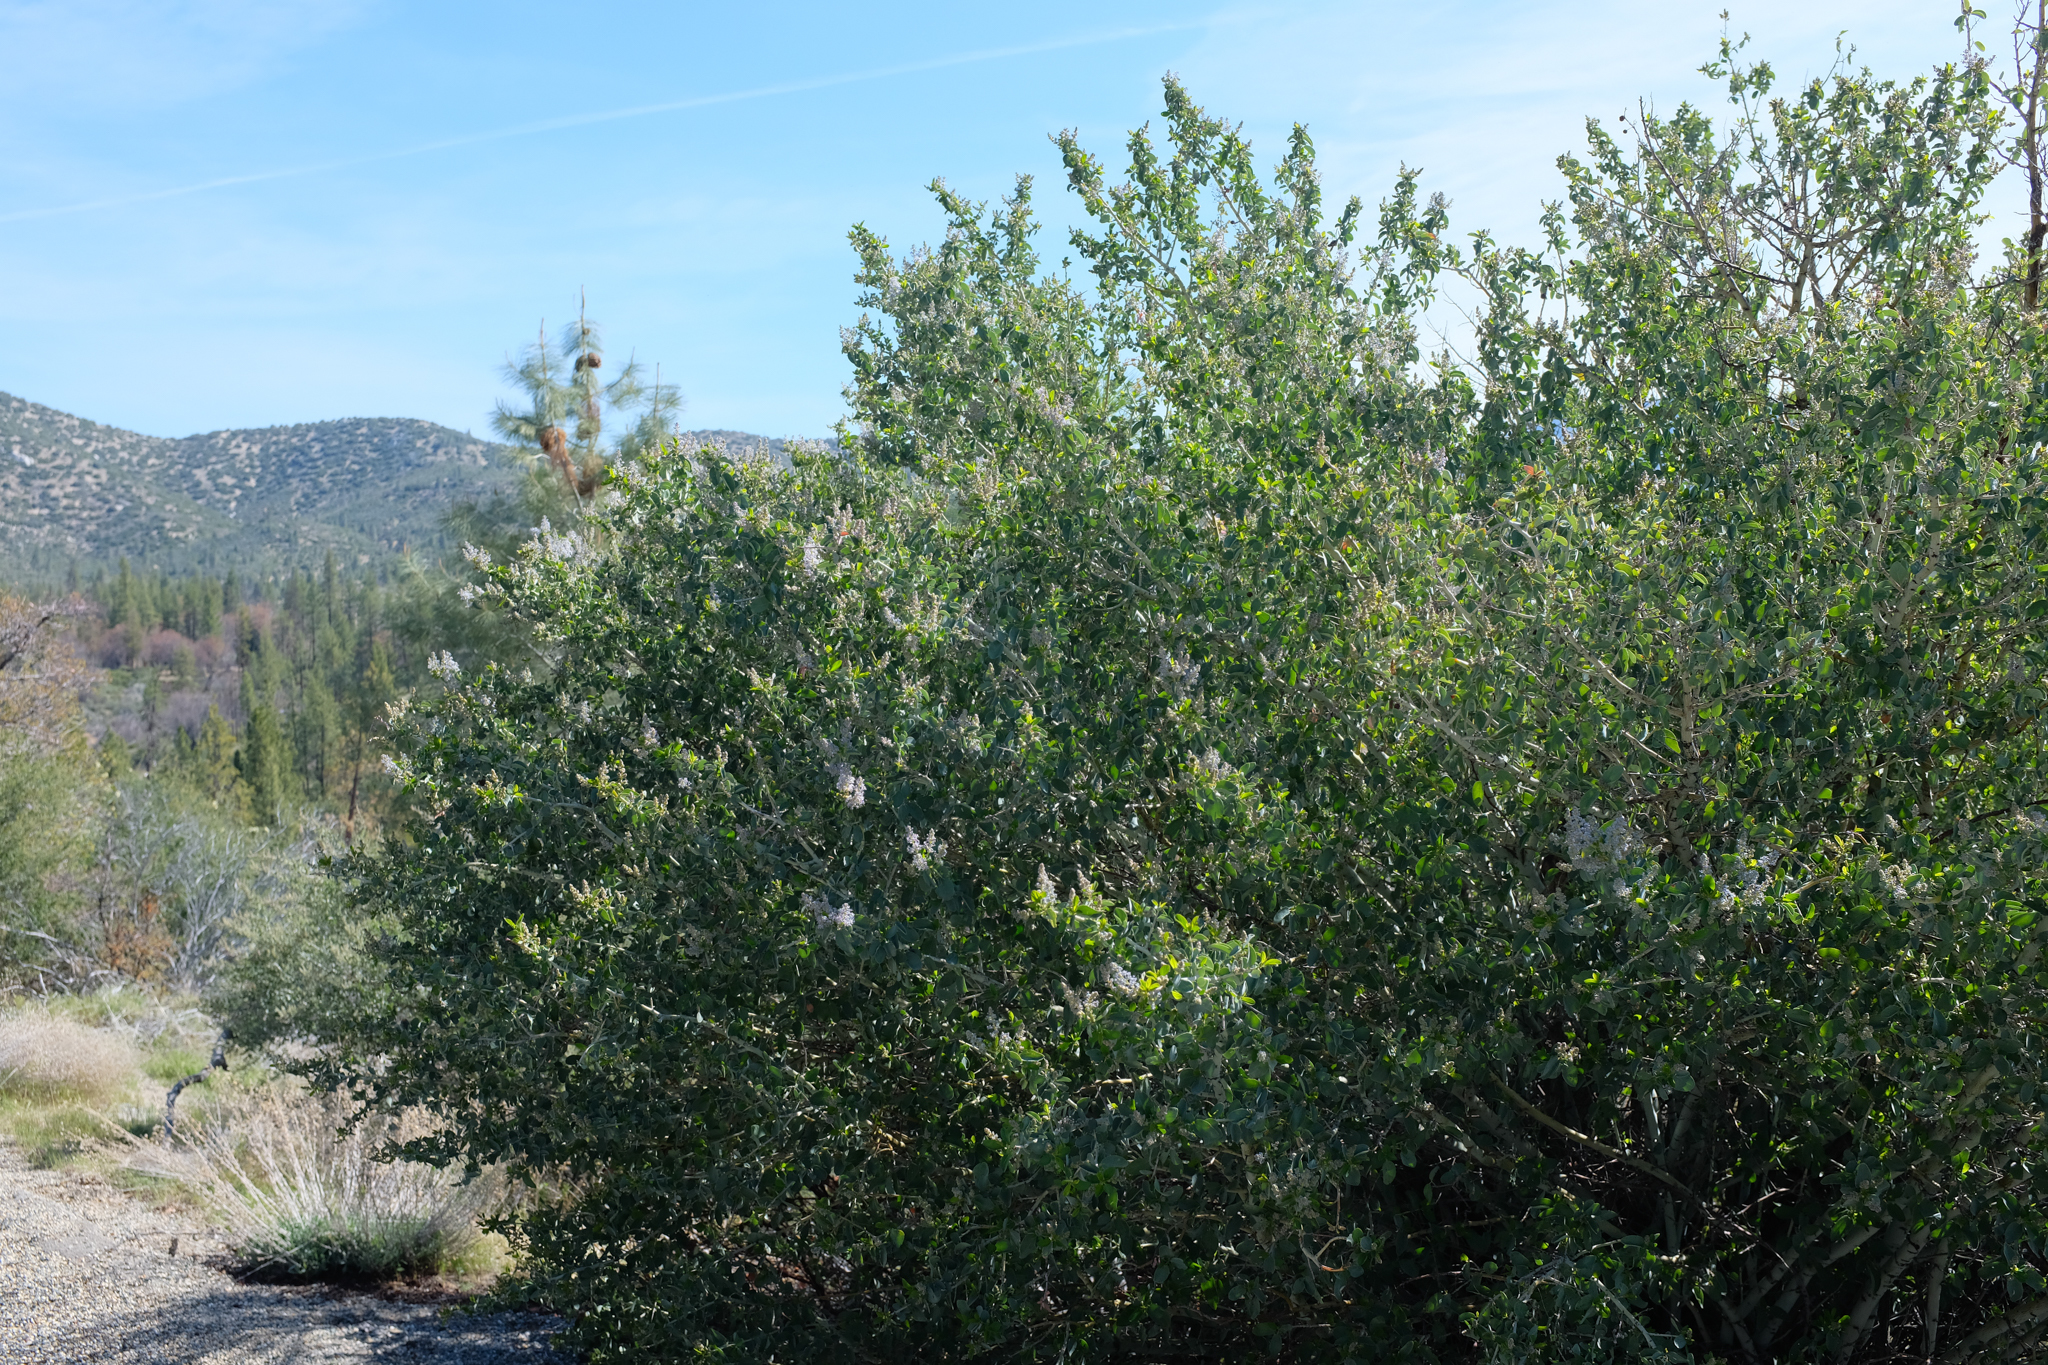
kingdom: Plantae
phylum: Tracheophyta
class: Magnoliopsida
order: Rosales
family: Rhamnaceae
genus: Ceanothus
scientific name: Ceanothus leucodermis
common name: Chaparral whitethorn
